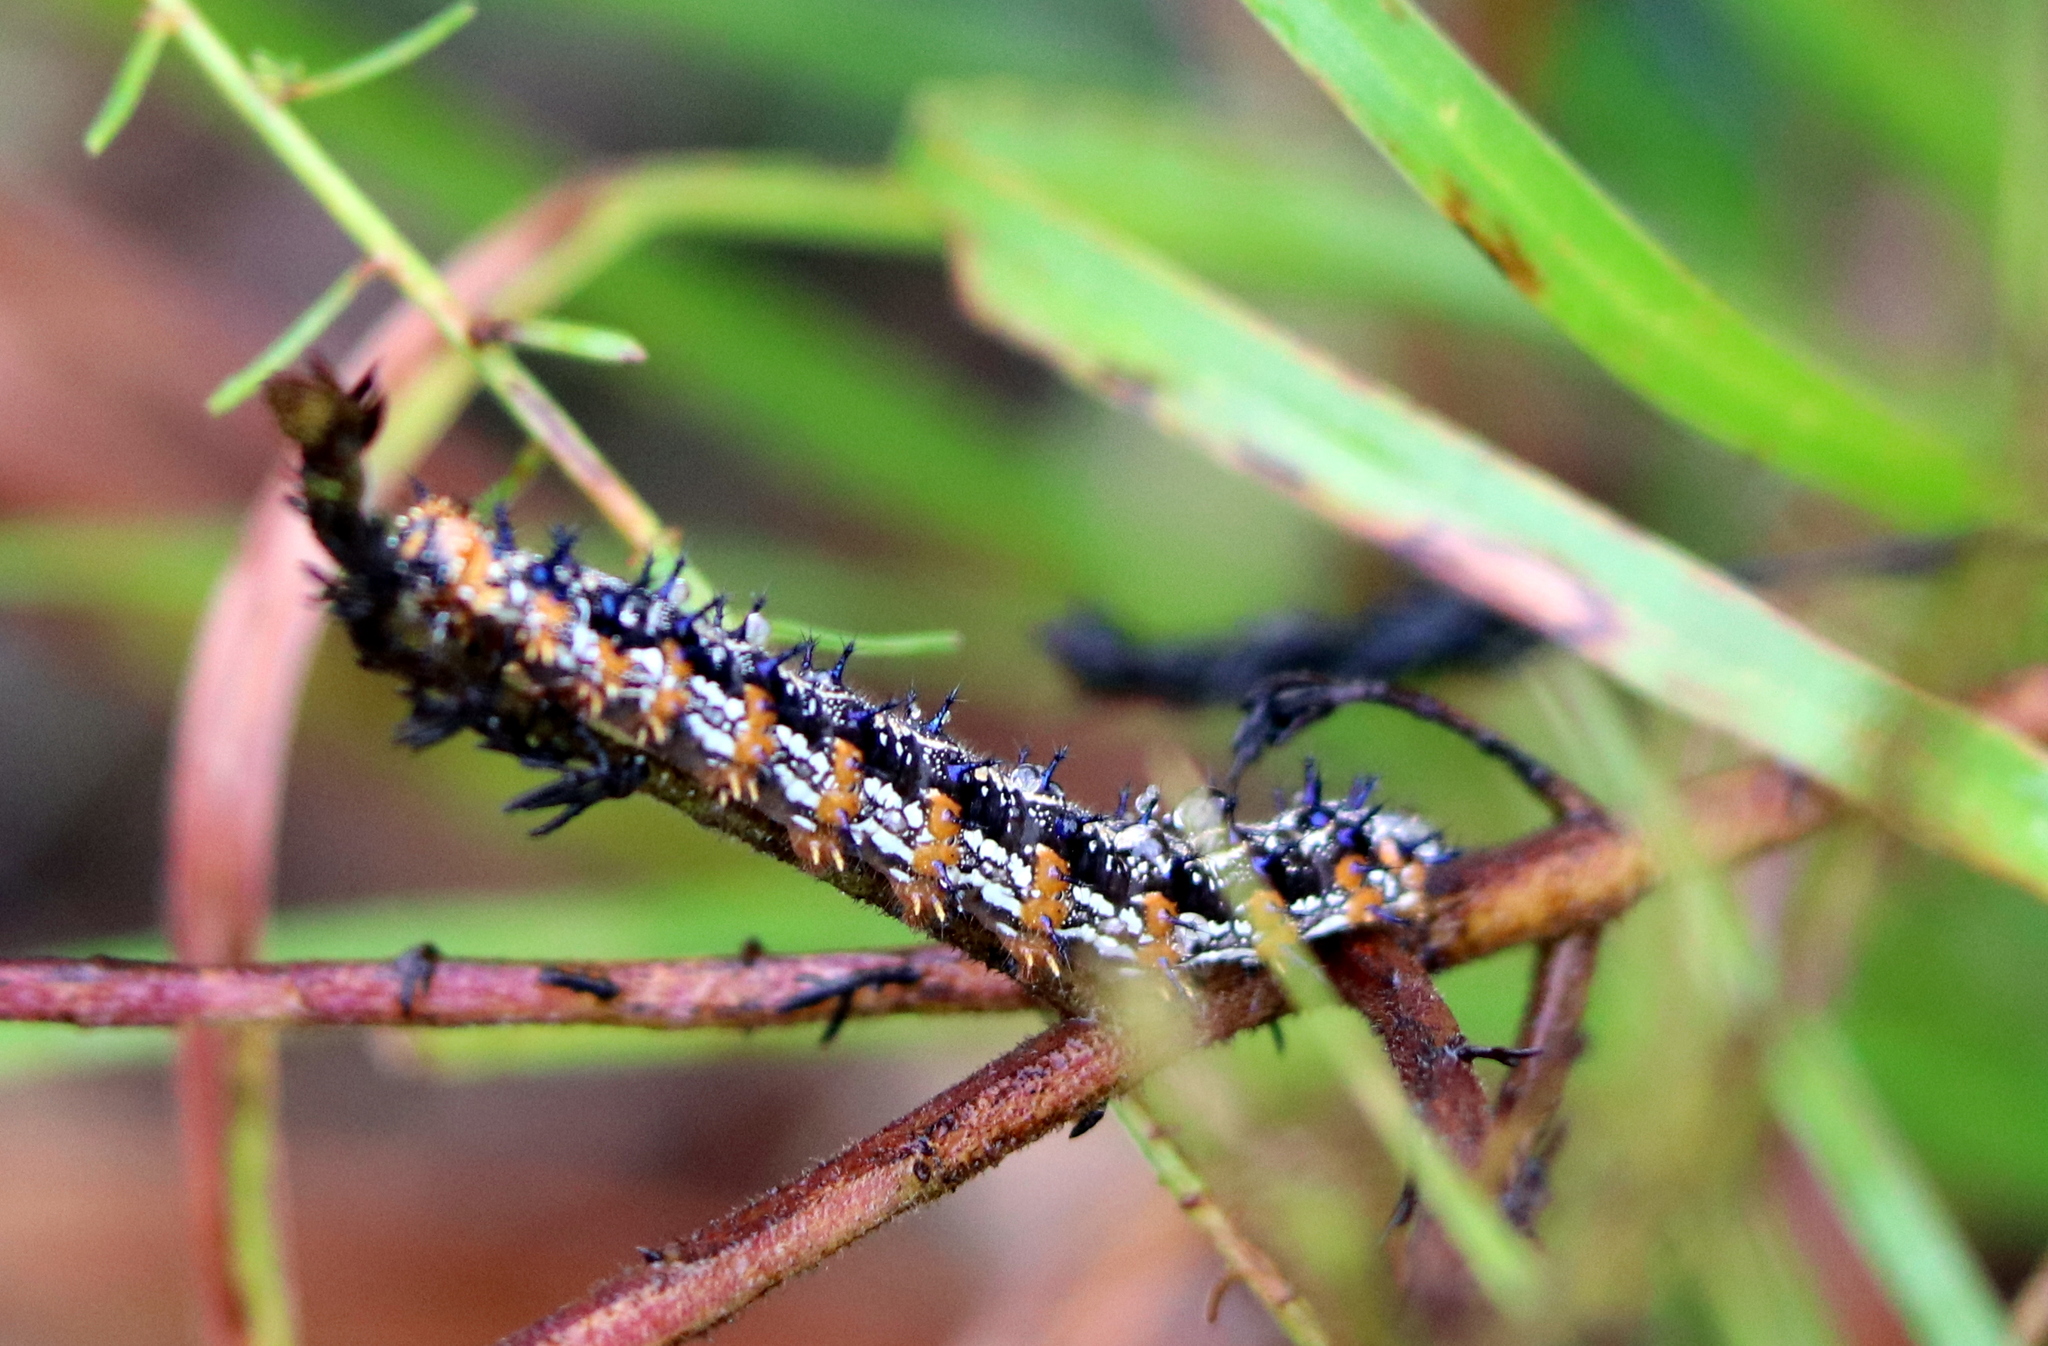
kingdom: Animalia
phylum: Arthropoda
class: Insecta
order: Lepidoptera
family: Nymphalidae
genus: Junonia
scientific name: Junonia coenia
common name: Common buckeye
